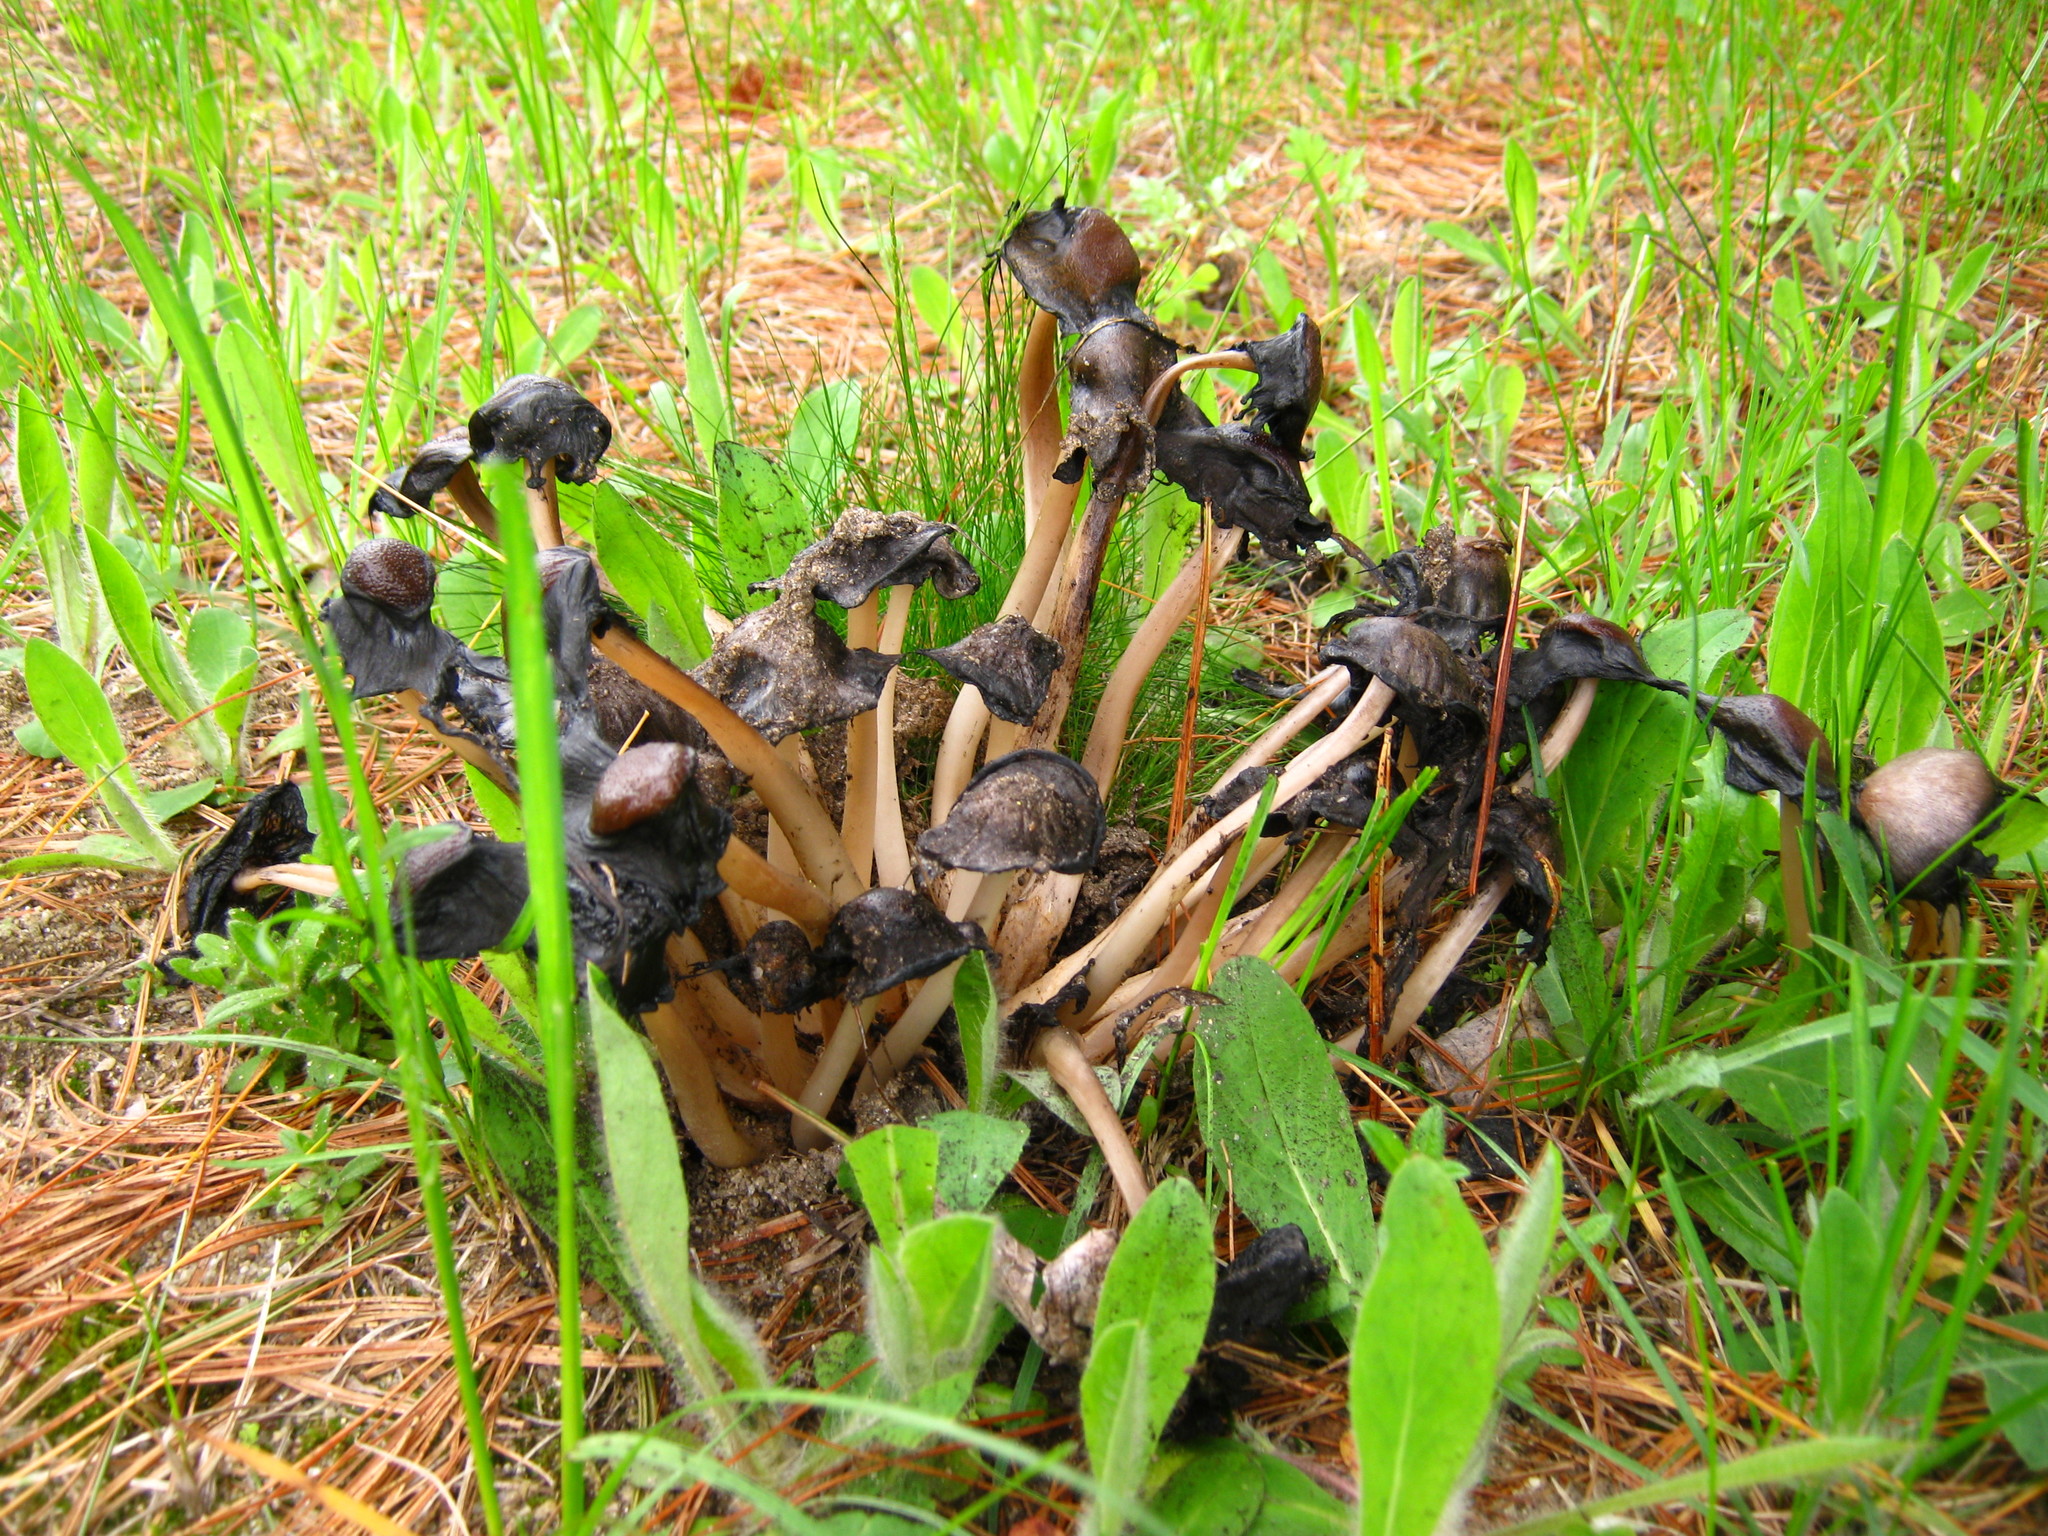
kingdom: Fungi
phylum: Basidiomycota
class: Agaricomycetes
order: Agaricales
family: Psathyrellaceae
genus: Coprinopsis
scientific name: Coprinopsis atramentaria
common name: Common ink-cap
